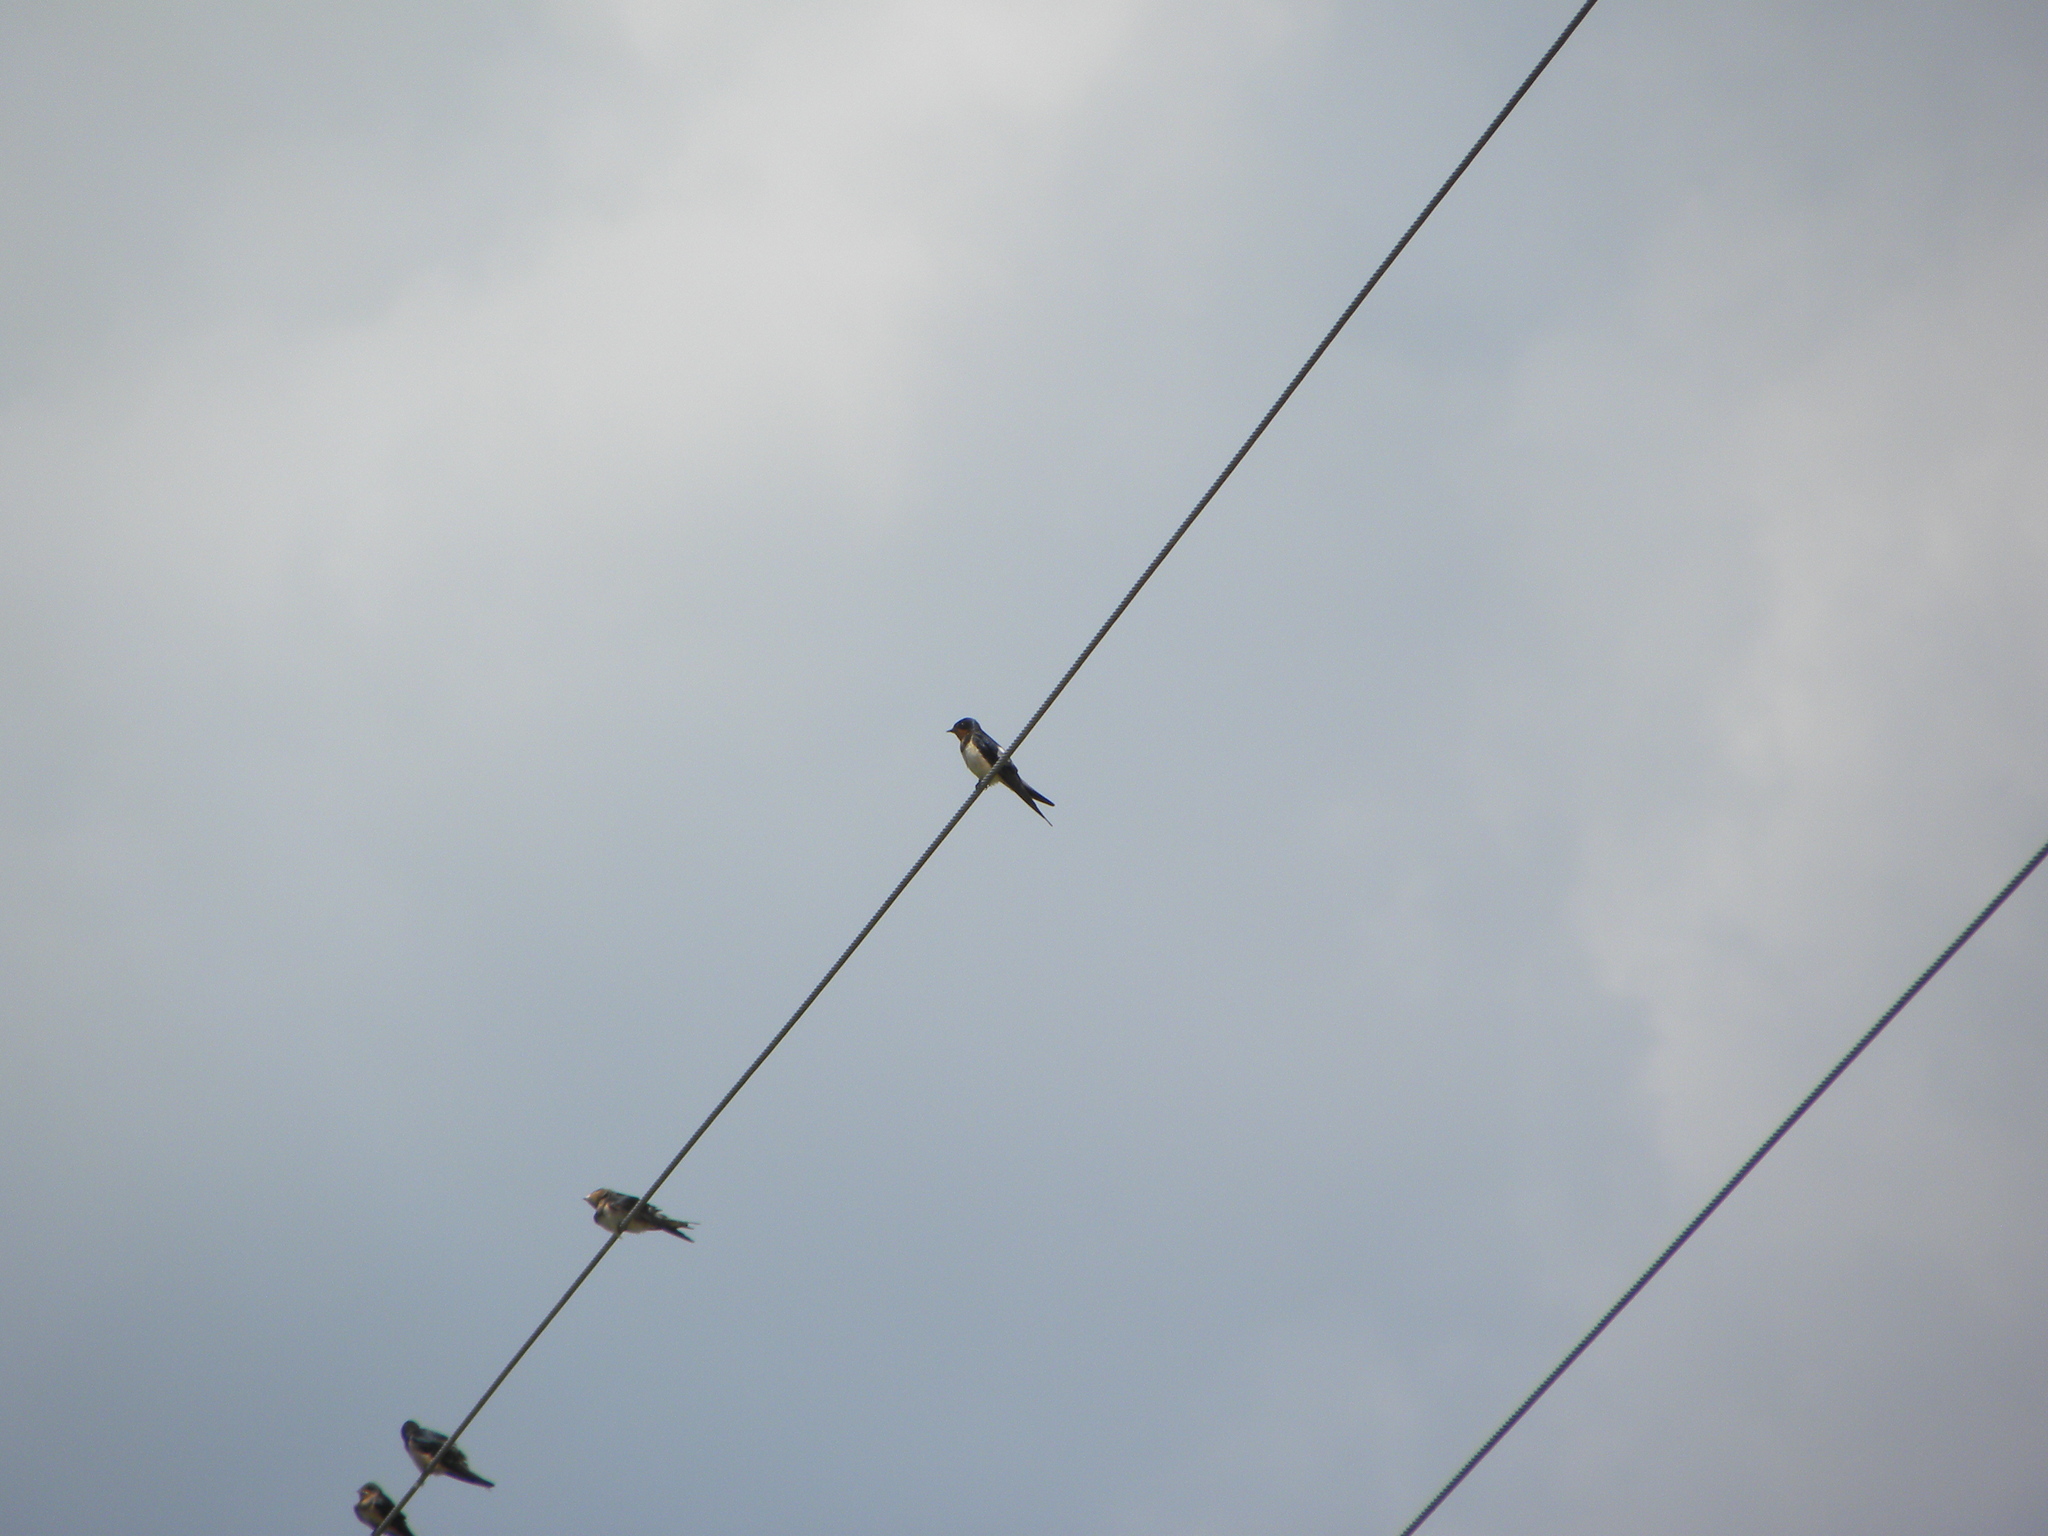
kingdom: Animalia
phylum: Chordata
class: Aves
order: Passeriformes
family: Hirundinidae
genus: Hirundo
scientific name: Hirundo rustica
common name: Barn swallow
